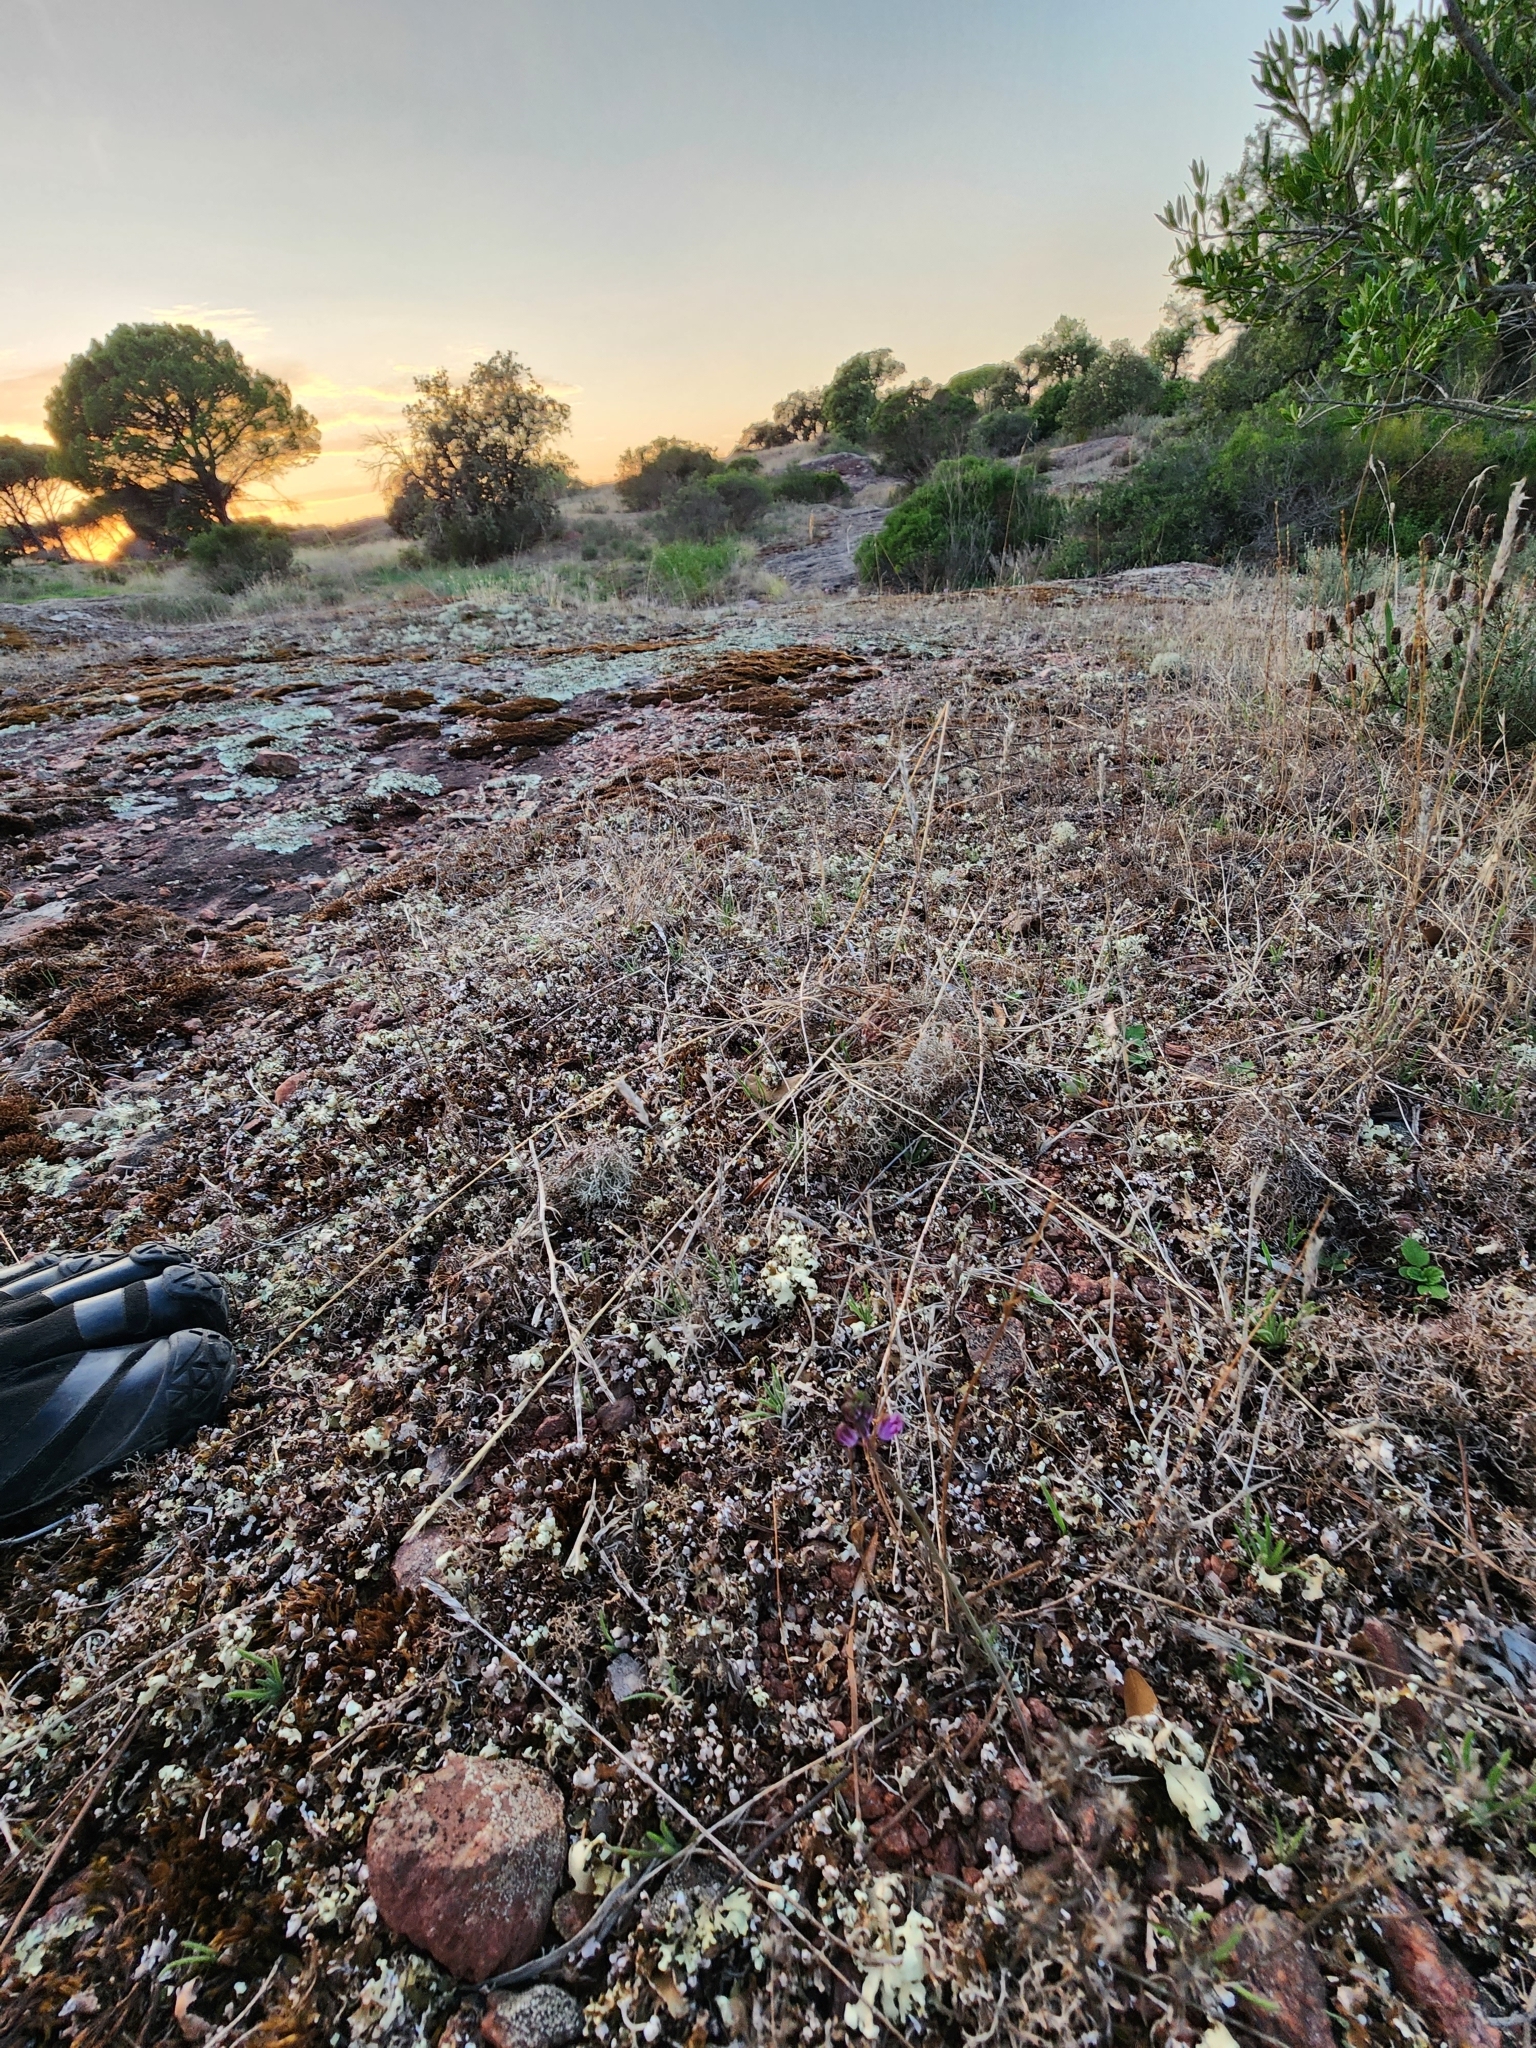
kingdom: Plantae
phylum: Tracheophyta
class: Liliopsida
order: Asparagales
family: Asparagaceae
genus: Prospero
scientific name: Prospero autumnale
